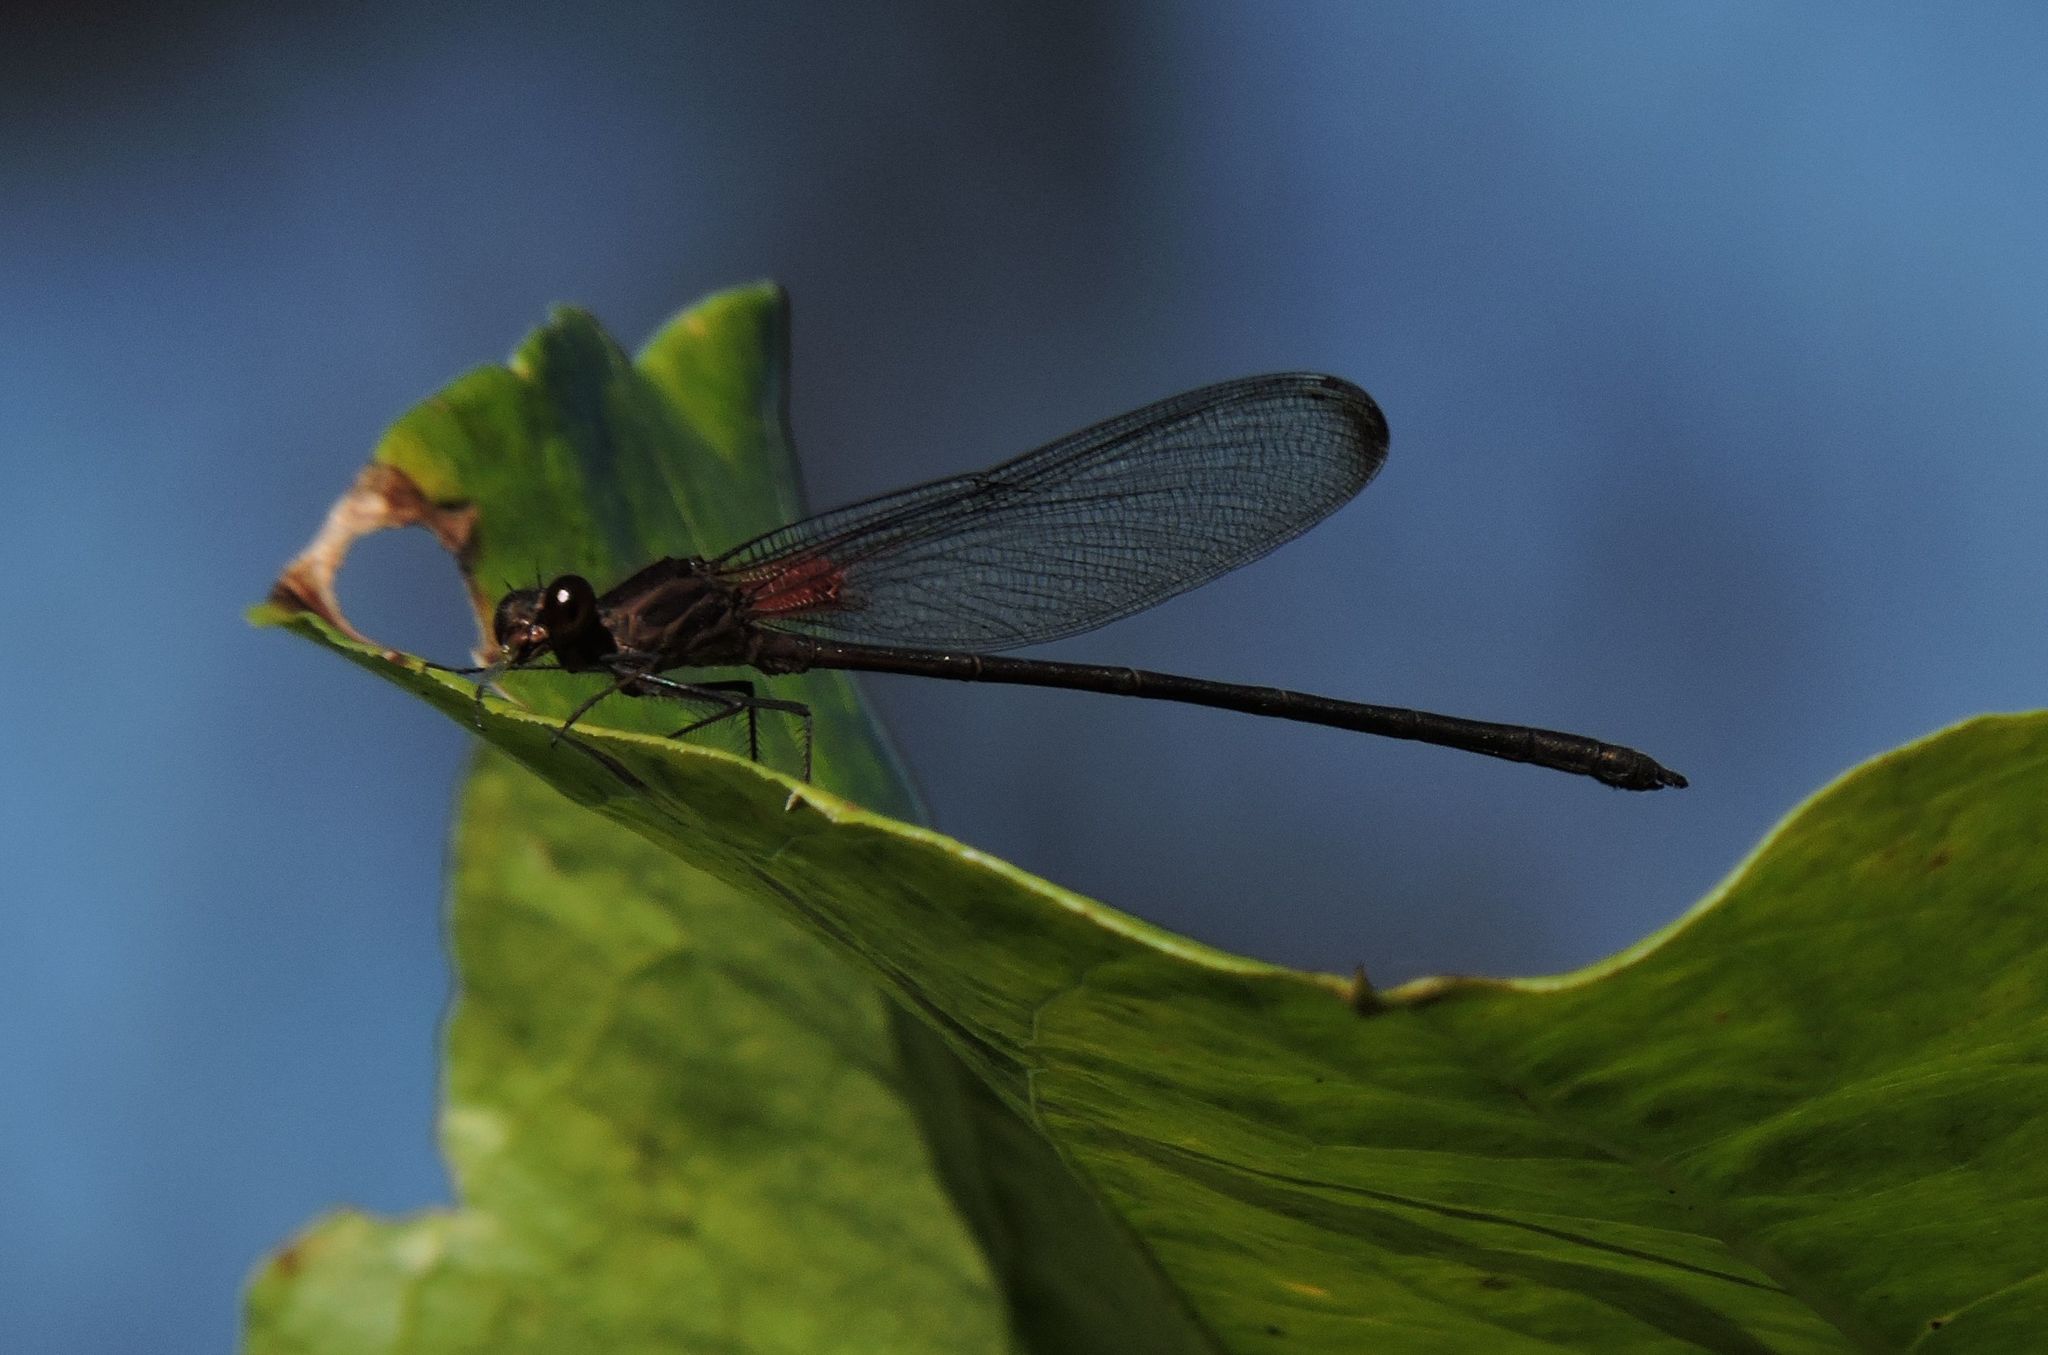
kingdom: Animalia
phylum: Arthropoda
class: Insecta
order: Odonata
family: Calopterygidae
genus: Hetaerina
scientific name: Hetaerina titia
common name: Smoky rubyspot
